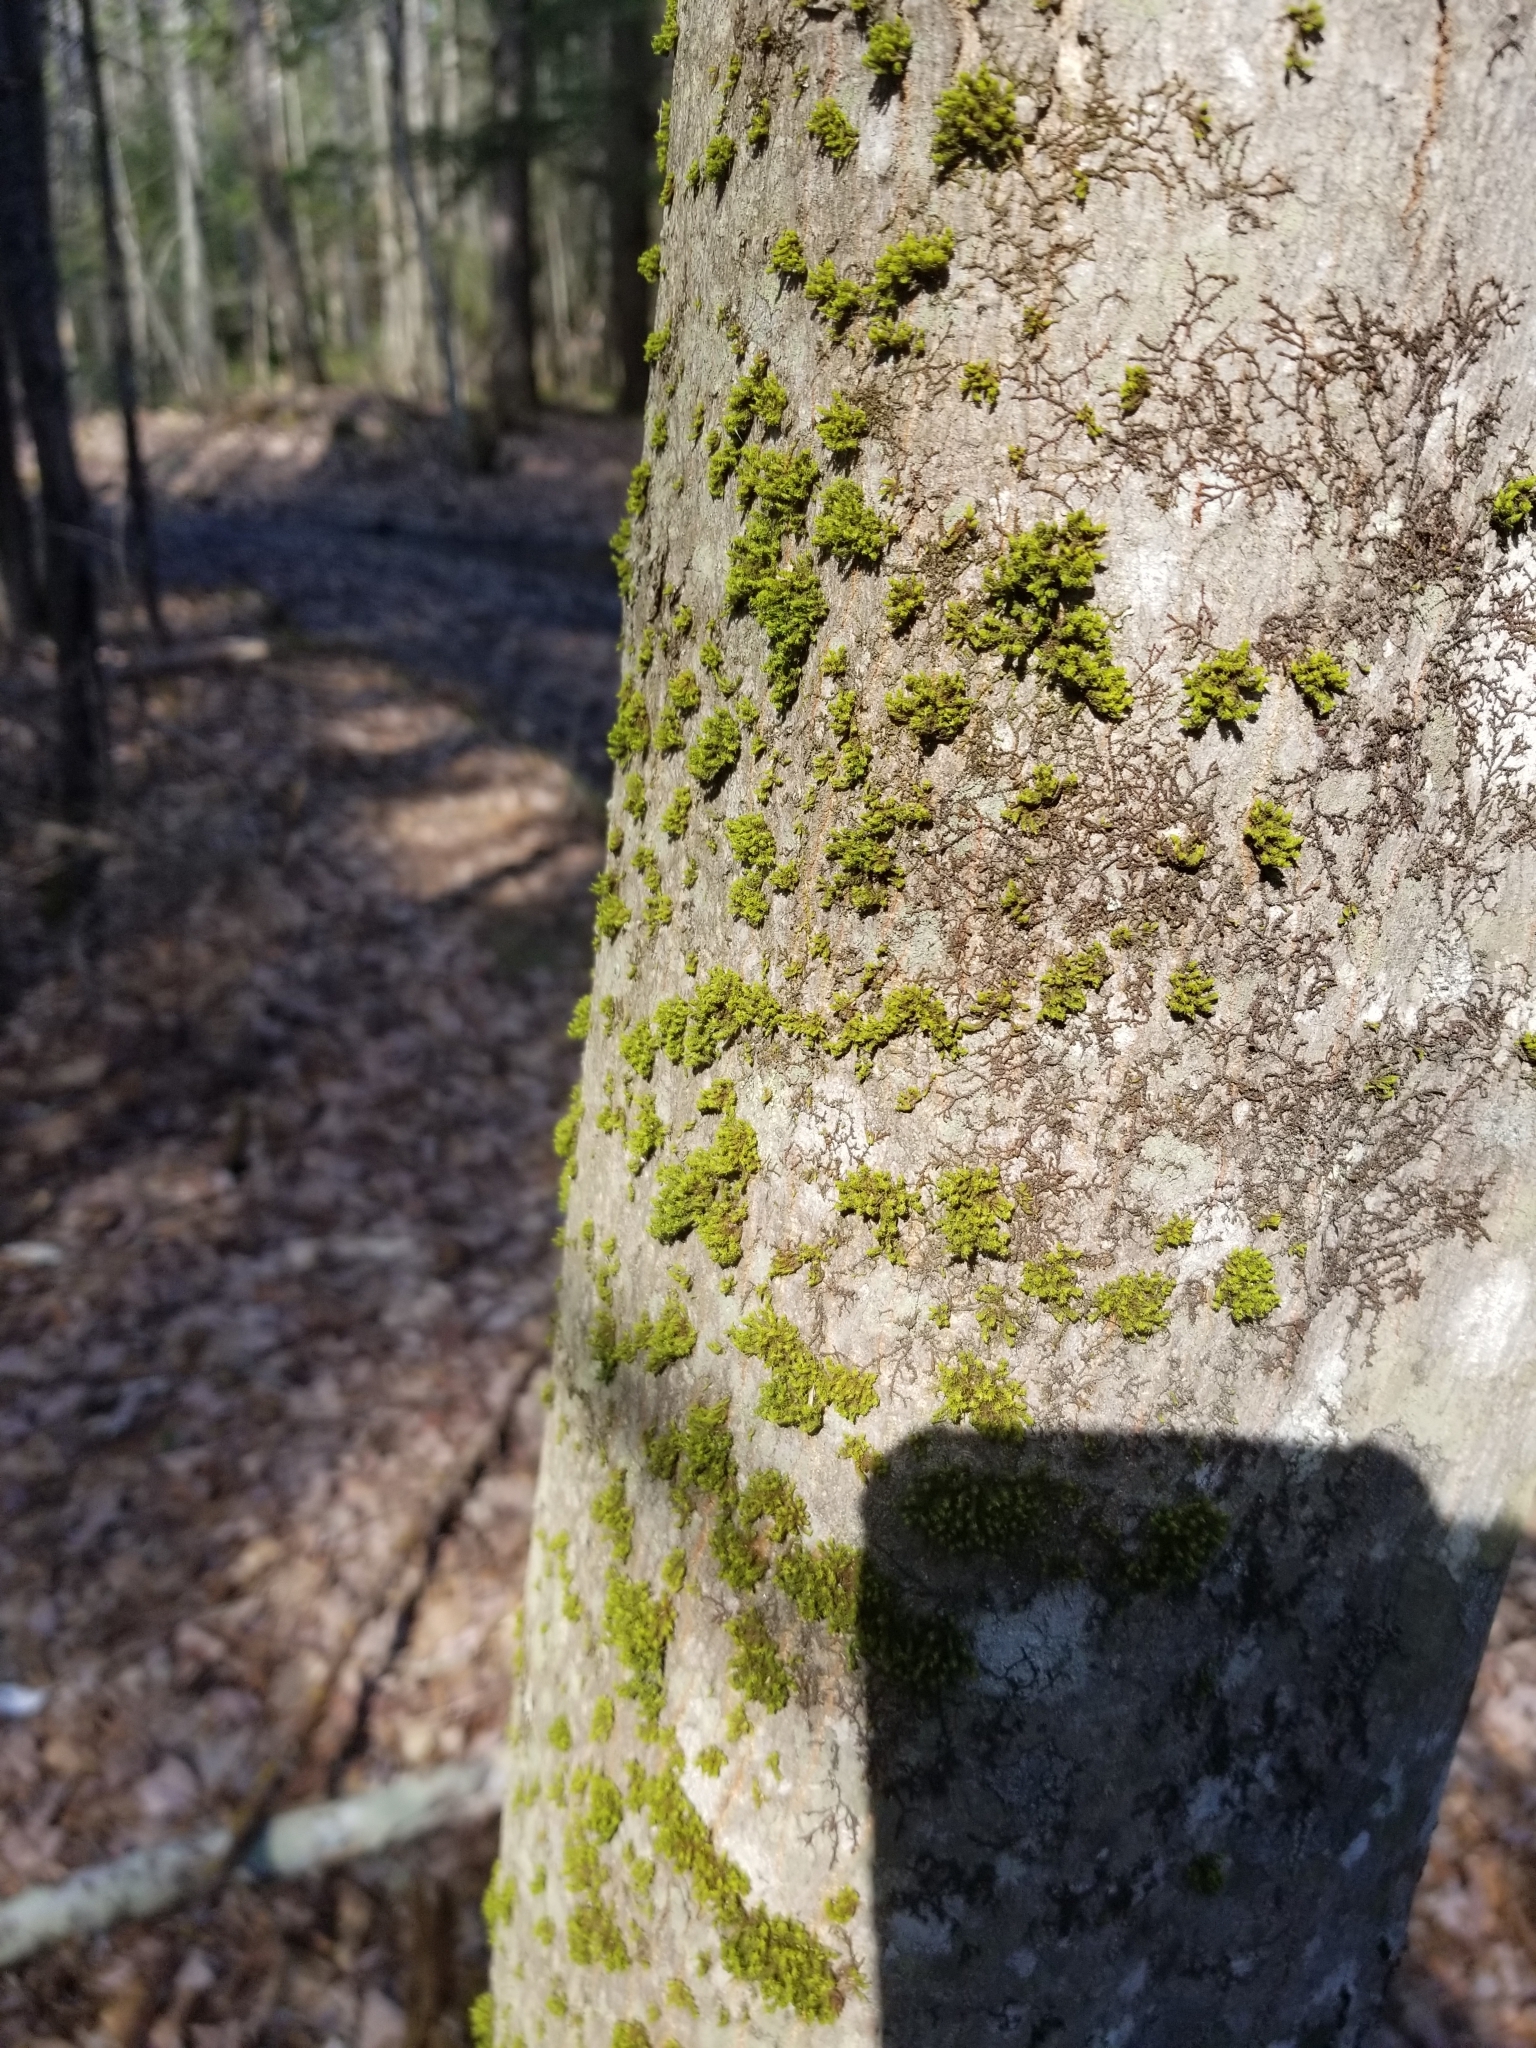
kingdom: Plantae
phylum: Bryophyta
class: Bryopsida
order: Orthotrichales
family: Orthotrichaceae
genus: Ulota
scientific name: Ulota crispa
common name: Crisped pincushion moss
